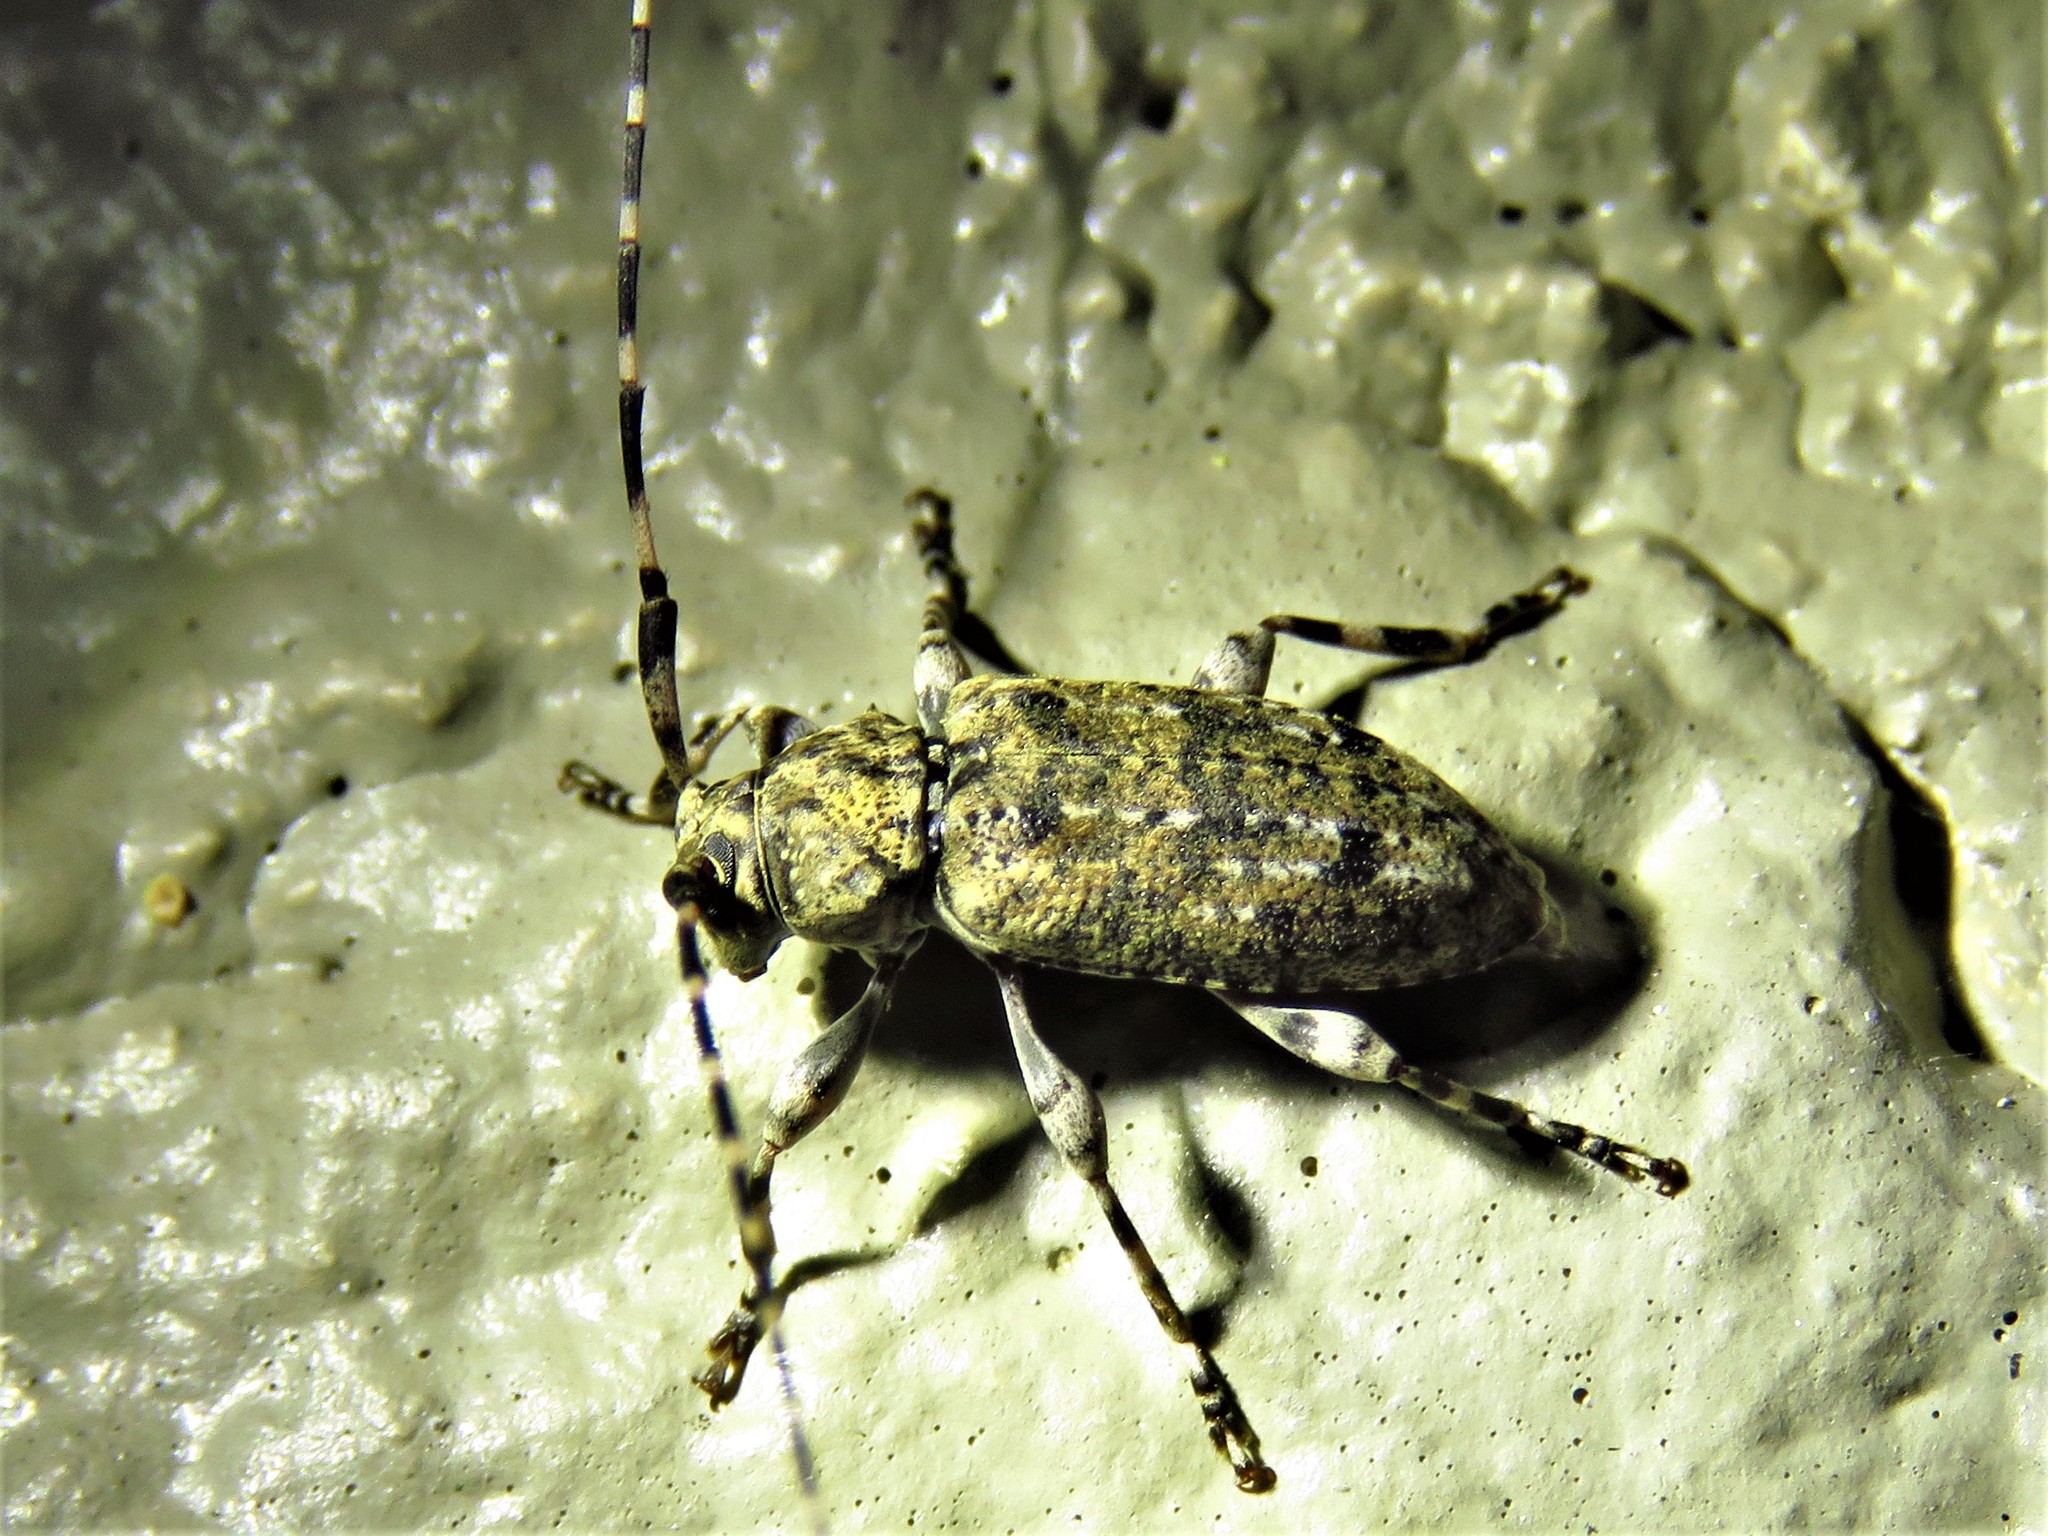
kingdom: Animalia
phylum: Arthropoda
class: Insecta
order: Coleoptera
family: Cerambycidae
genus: Astyleiopus
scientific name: Astyleiopus variegatus
